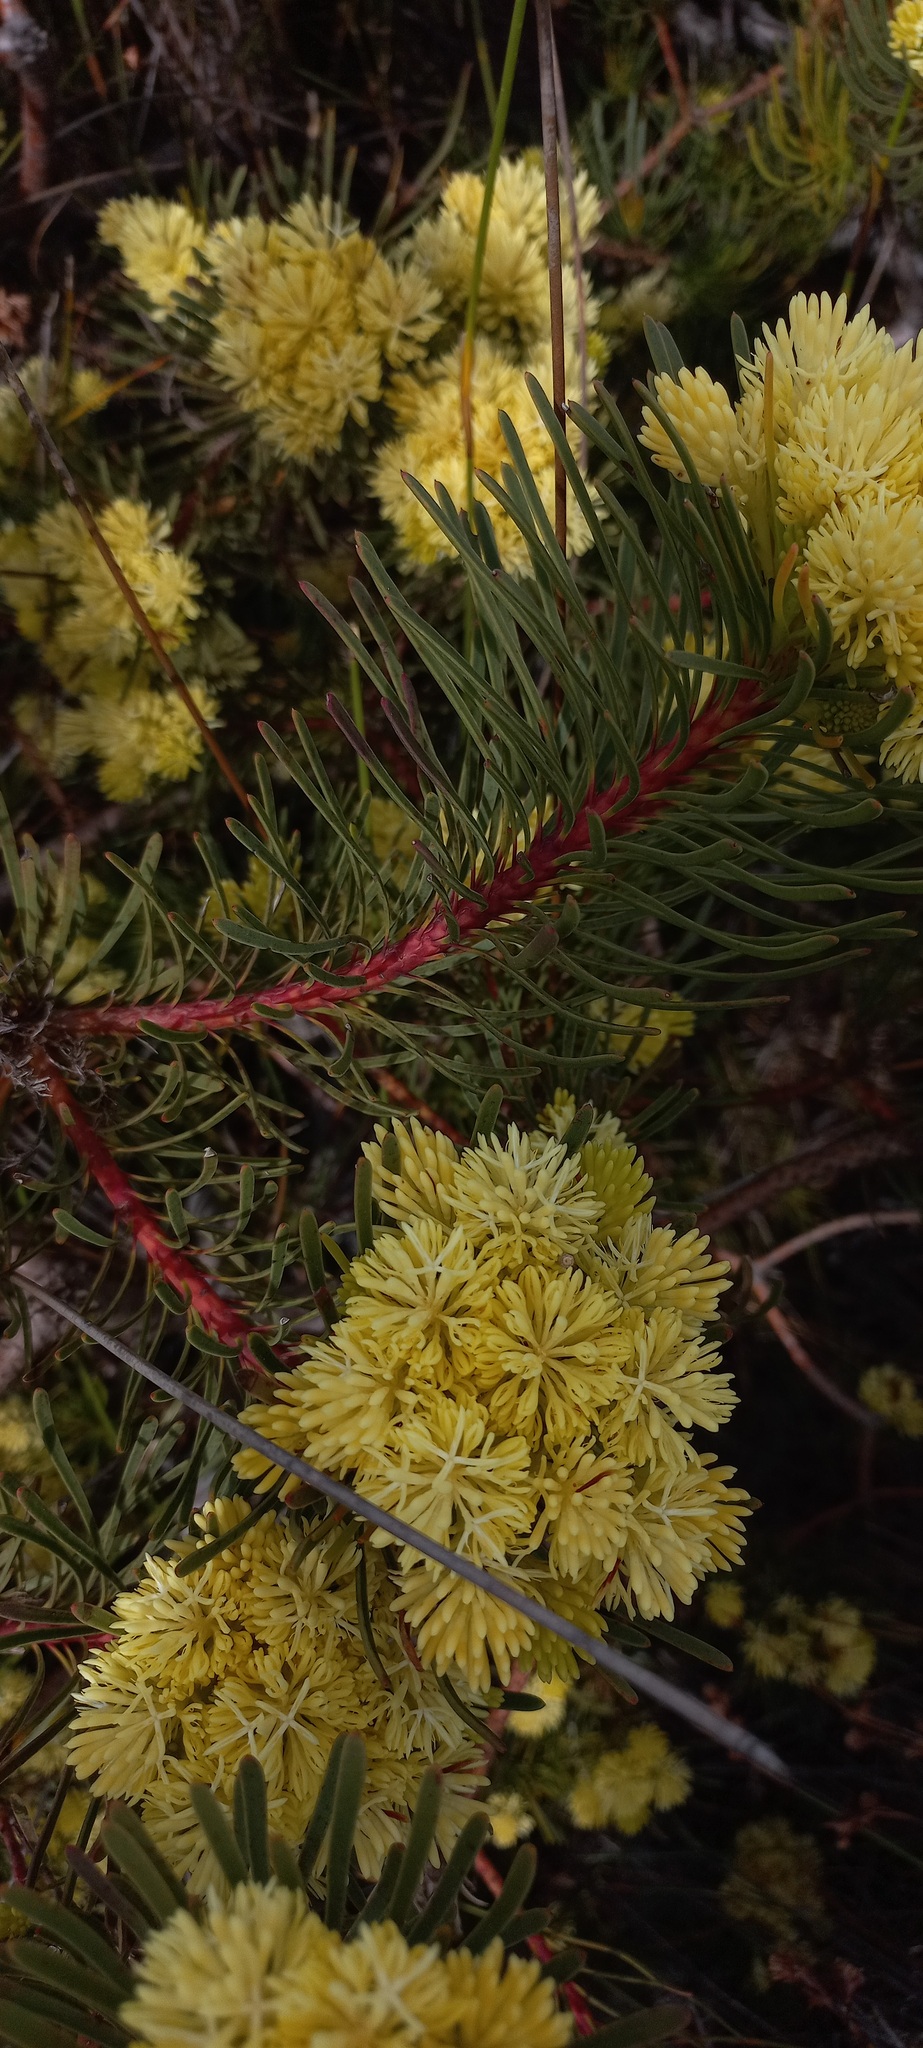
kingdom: Plantae
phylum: Tracheophyta
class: Magnoliopsida
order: Proteales
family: Proteaceae
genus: Aulax
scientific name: Aulax cancellata
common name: Channel-leaf featherbush
